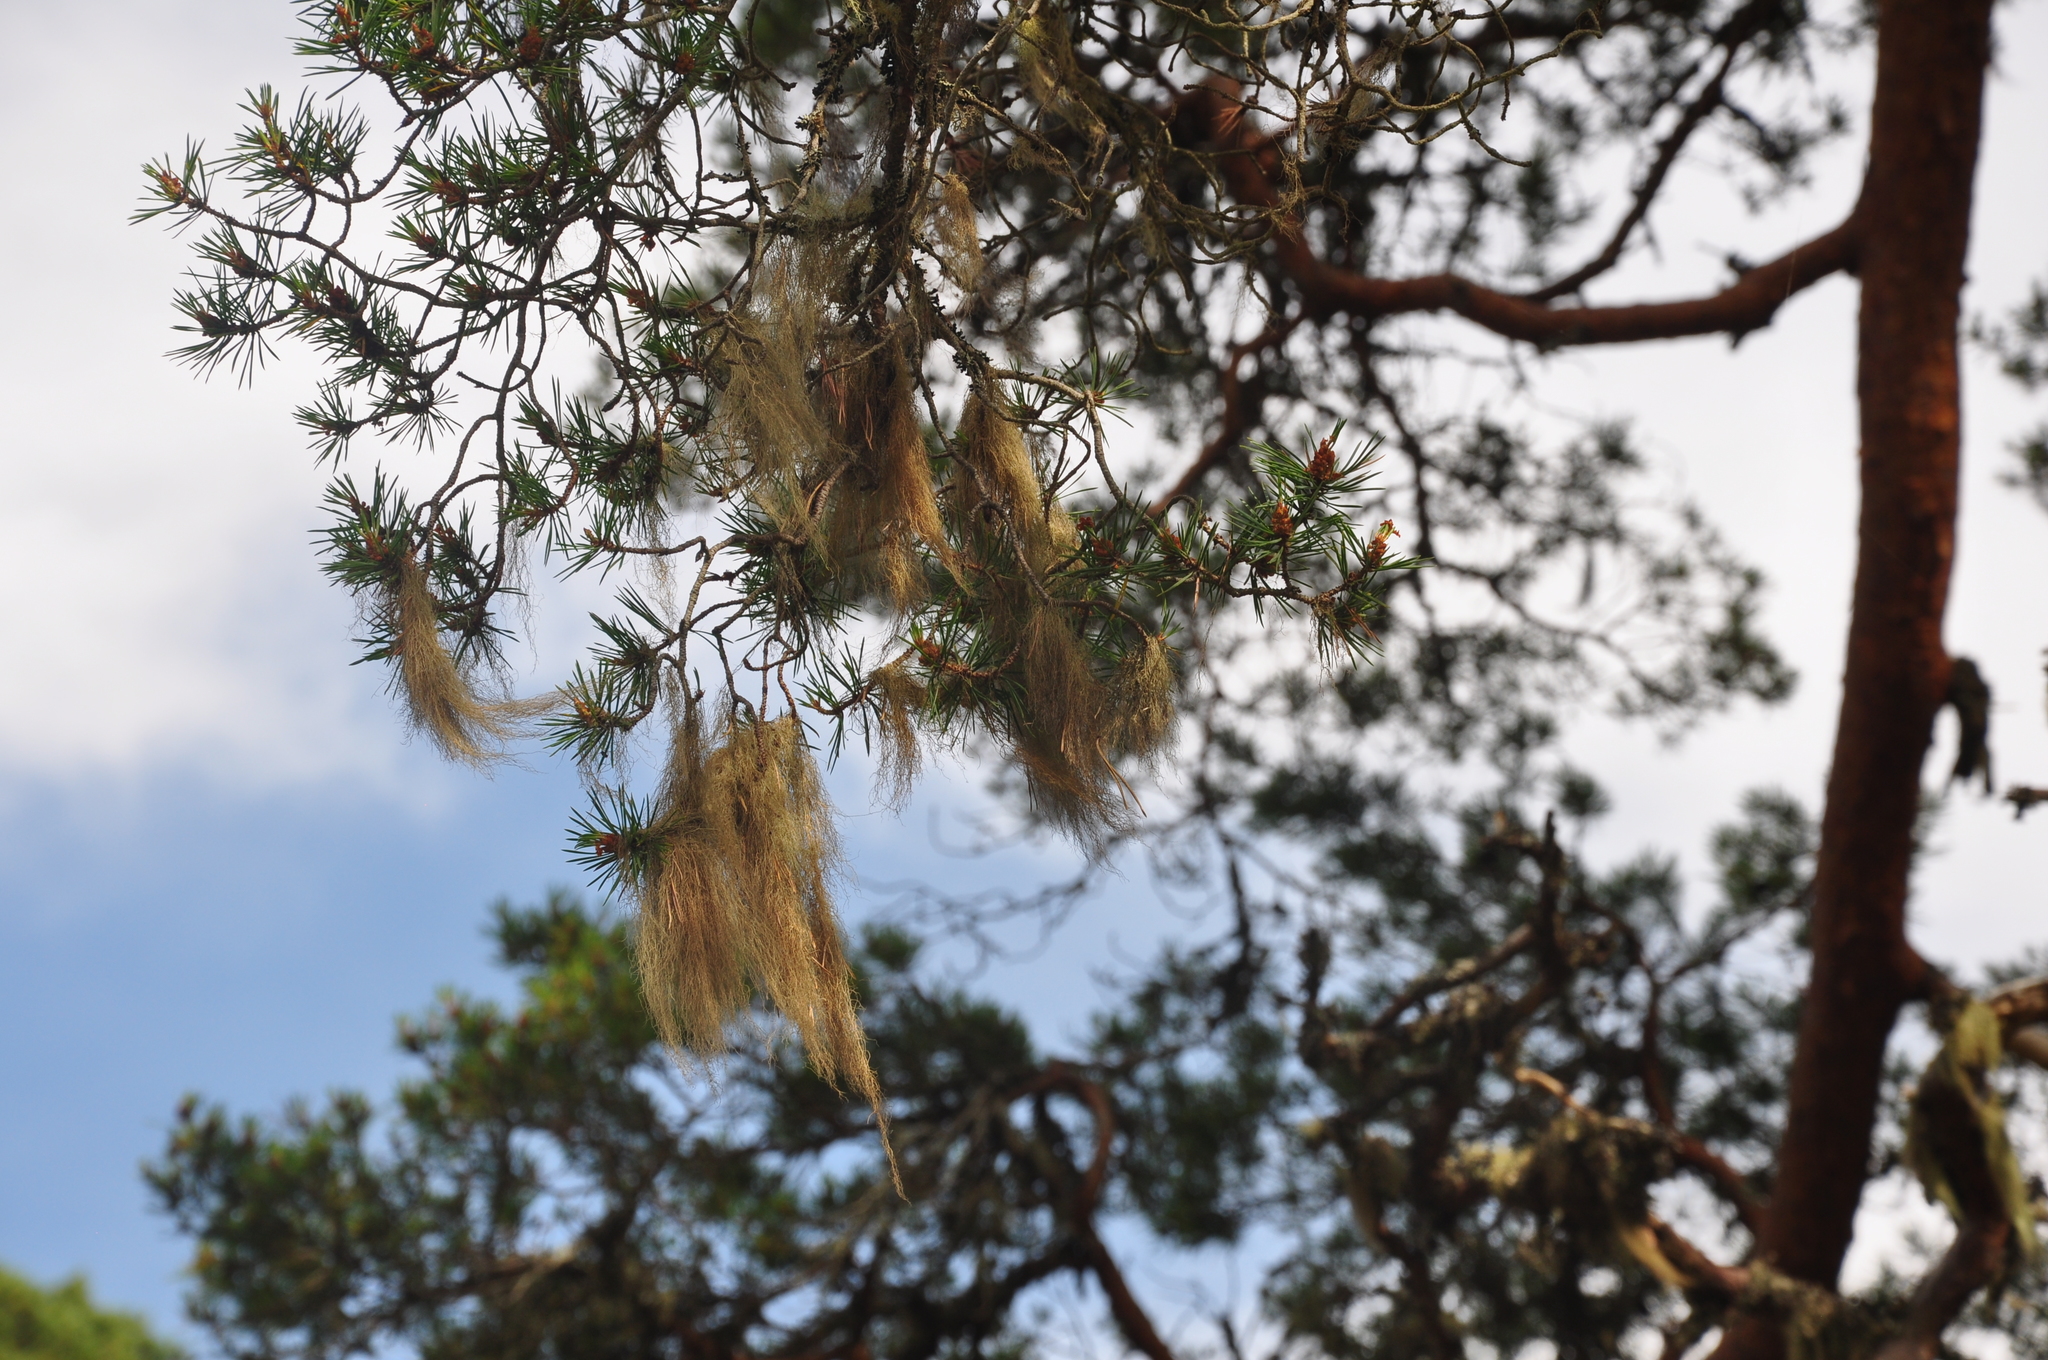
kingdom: Fungi
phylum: Ascomycota
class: Lecanoromycetes
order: Lecanorales
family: Parmeliaceae
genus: Bryoria
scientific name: Bryoria fuscescens
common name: Pale-footed horsehair lichen
